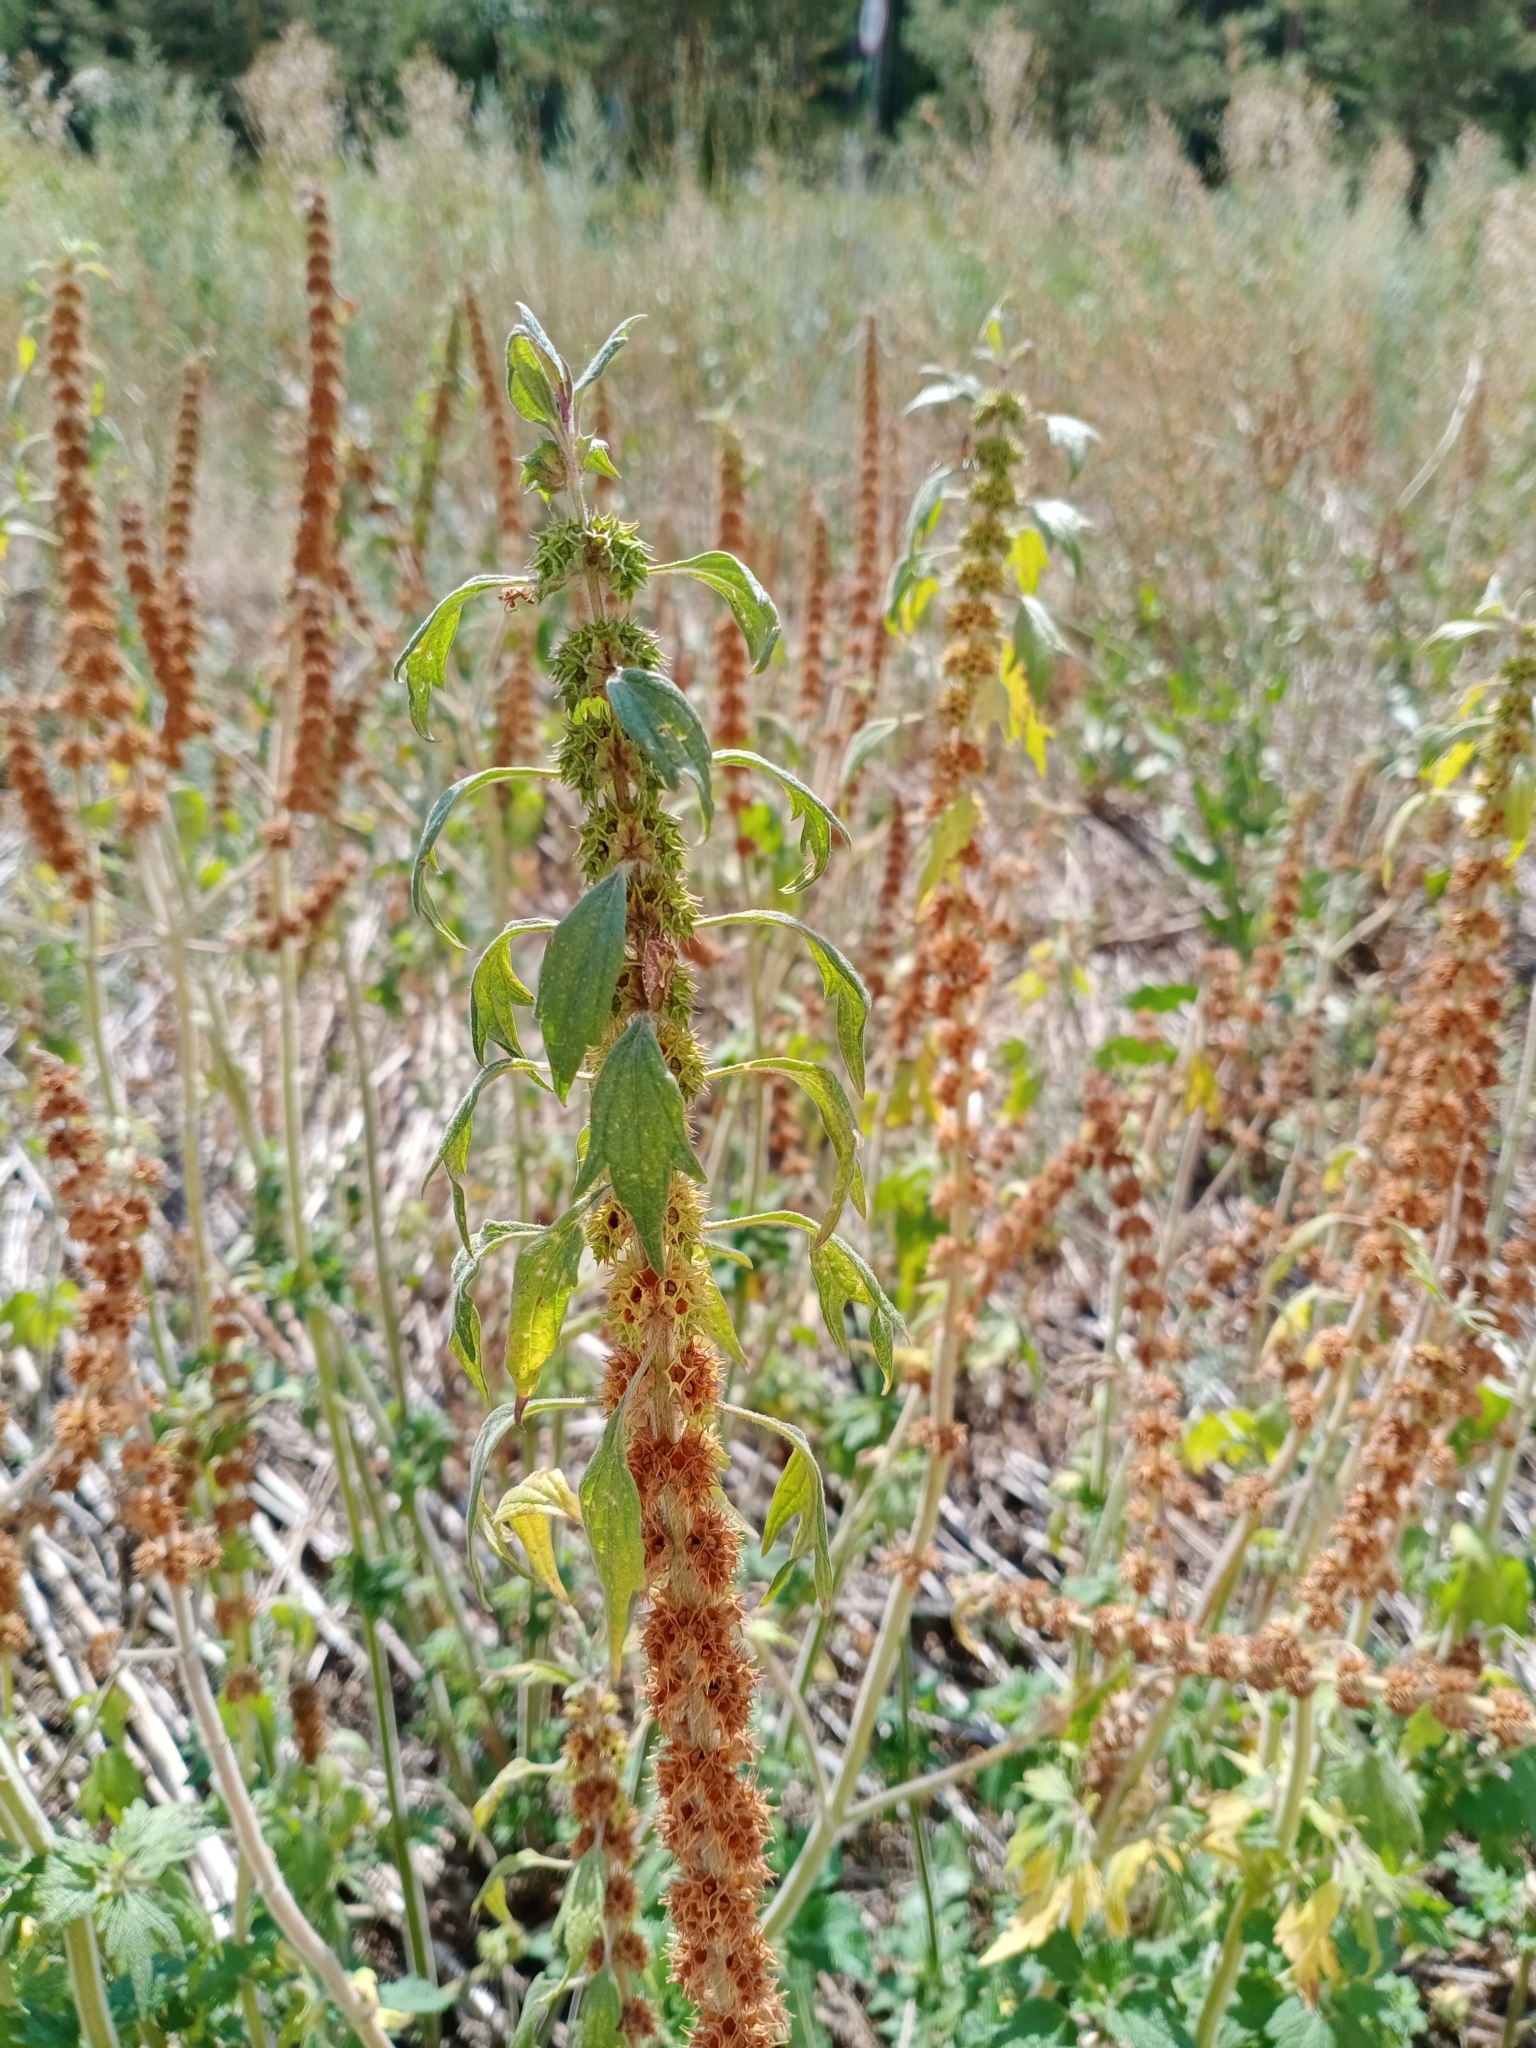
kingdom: Plantae
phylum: Tracheophyta
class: Magnoliopsida
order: Lamiales
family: Lamiaceae
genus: Leonurus
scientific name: Leonurus quinquelobatus
